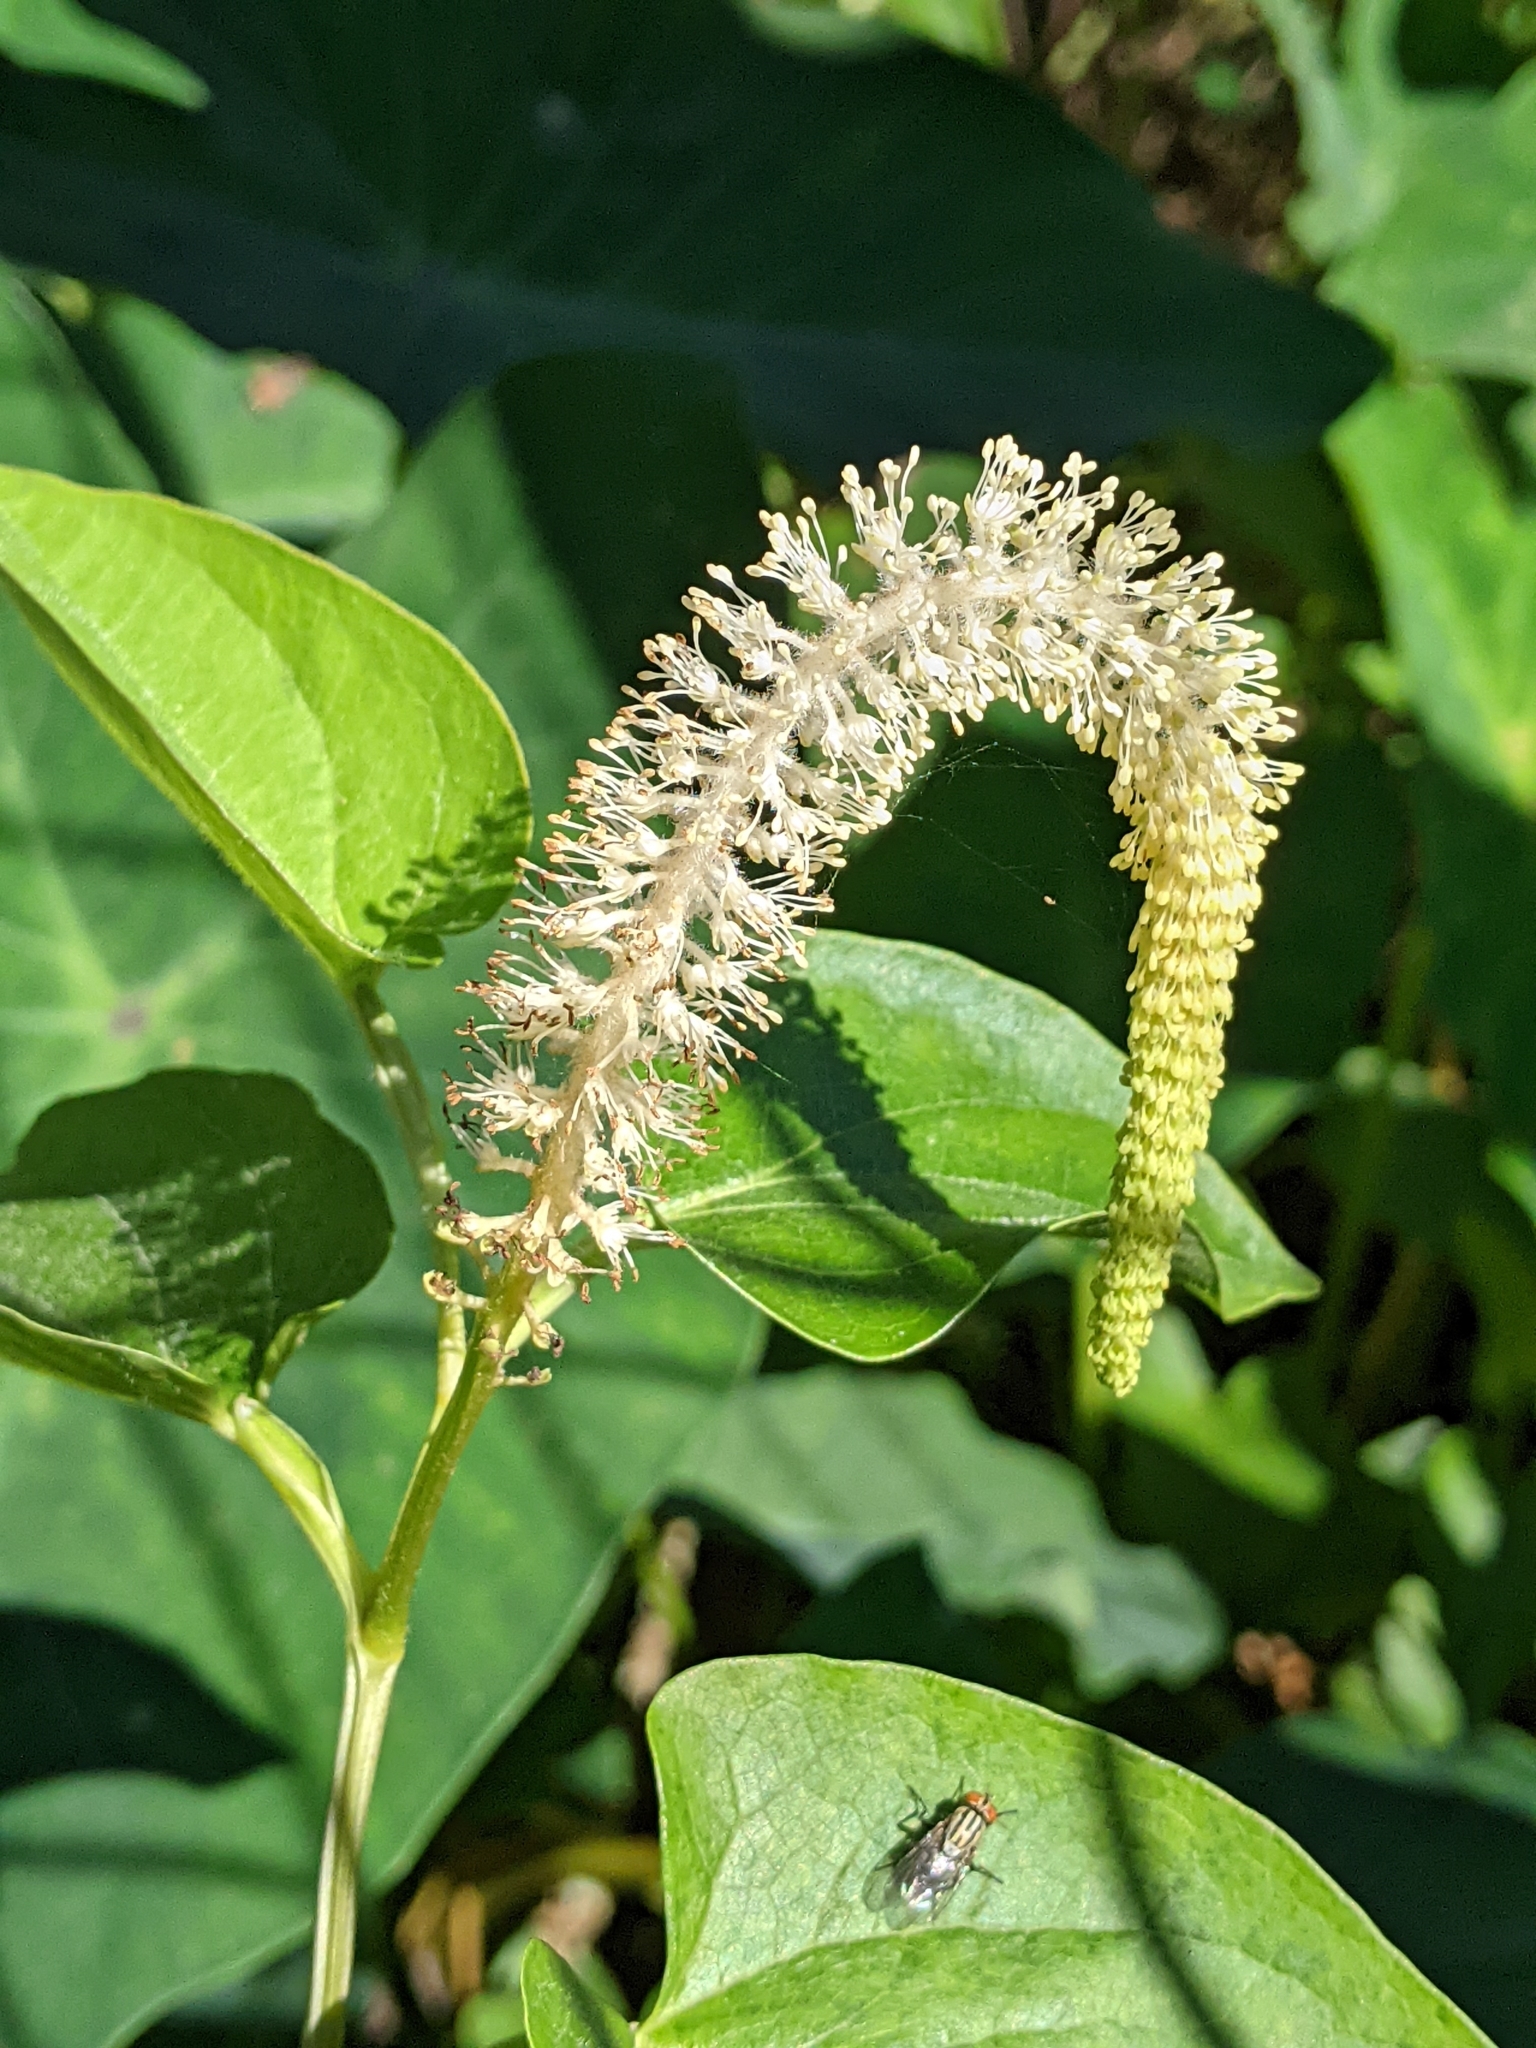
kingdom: Plantae
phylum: Tracheophyta
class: Magnoliopsida
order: Piperales
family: Saururaceae
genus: Saururus
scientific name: Saururus cernuus
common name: Lizard's-tail
